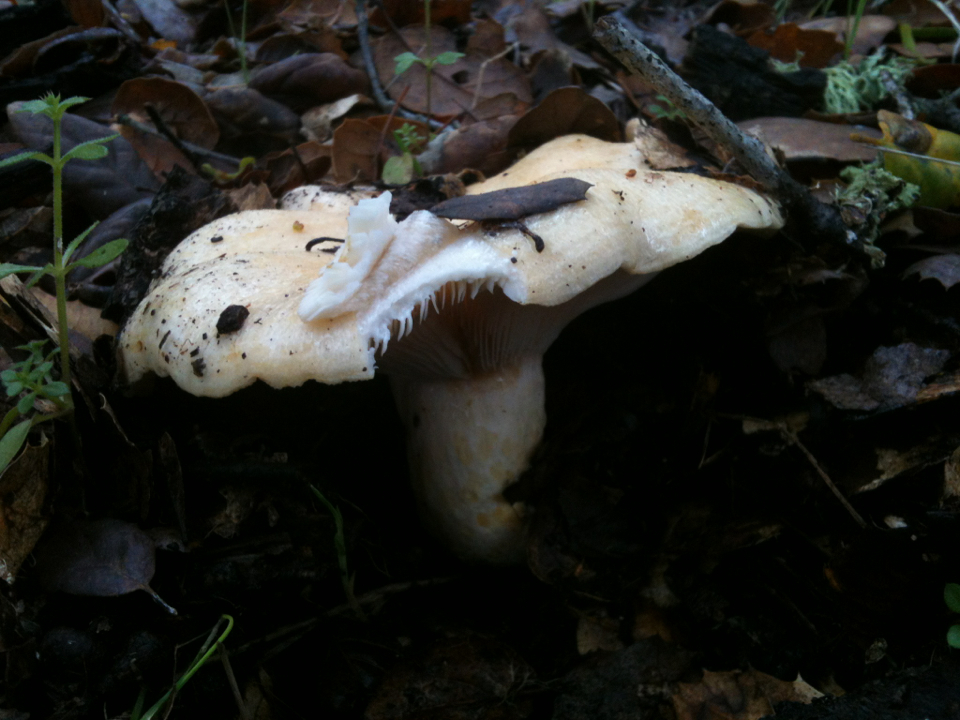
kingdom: Fungi
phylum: Basidiomycota
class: Agaricomycetes
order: Russulales
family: Russulaceae
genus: Lactarius
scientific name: Lactarius alnicola
